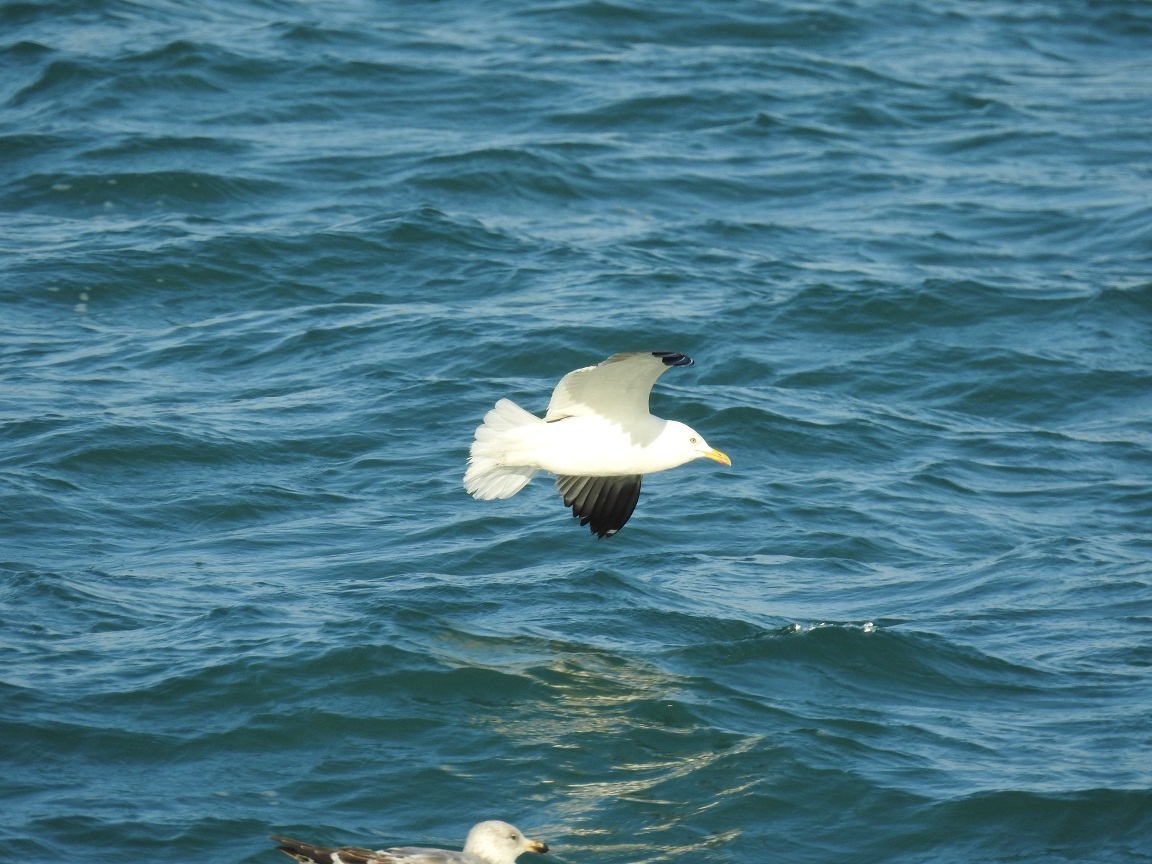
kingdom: Animalia
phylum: Chordata
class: Aves
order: Charadriiformes
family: Laridae
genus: Larus
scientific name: Larus fuscus
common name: Lesser black-backed gull
